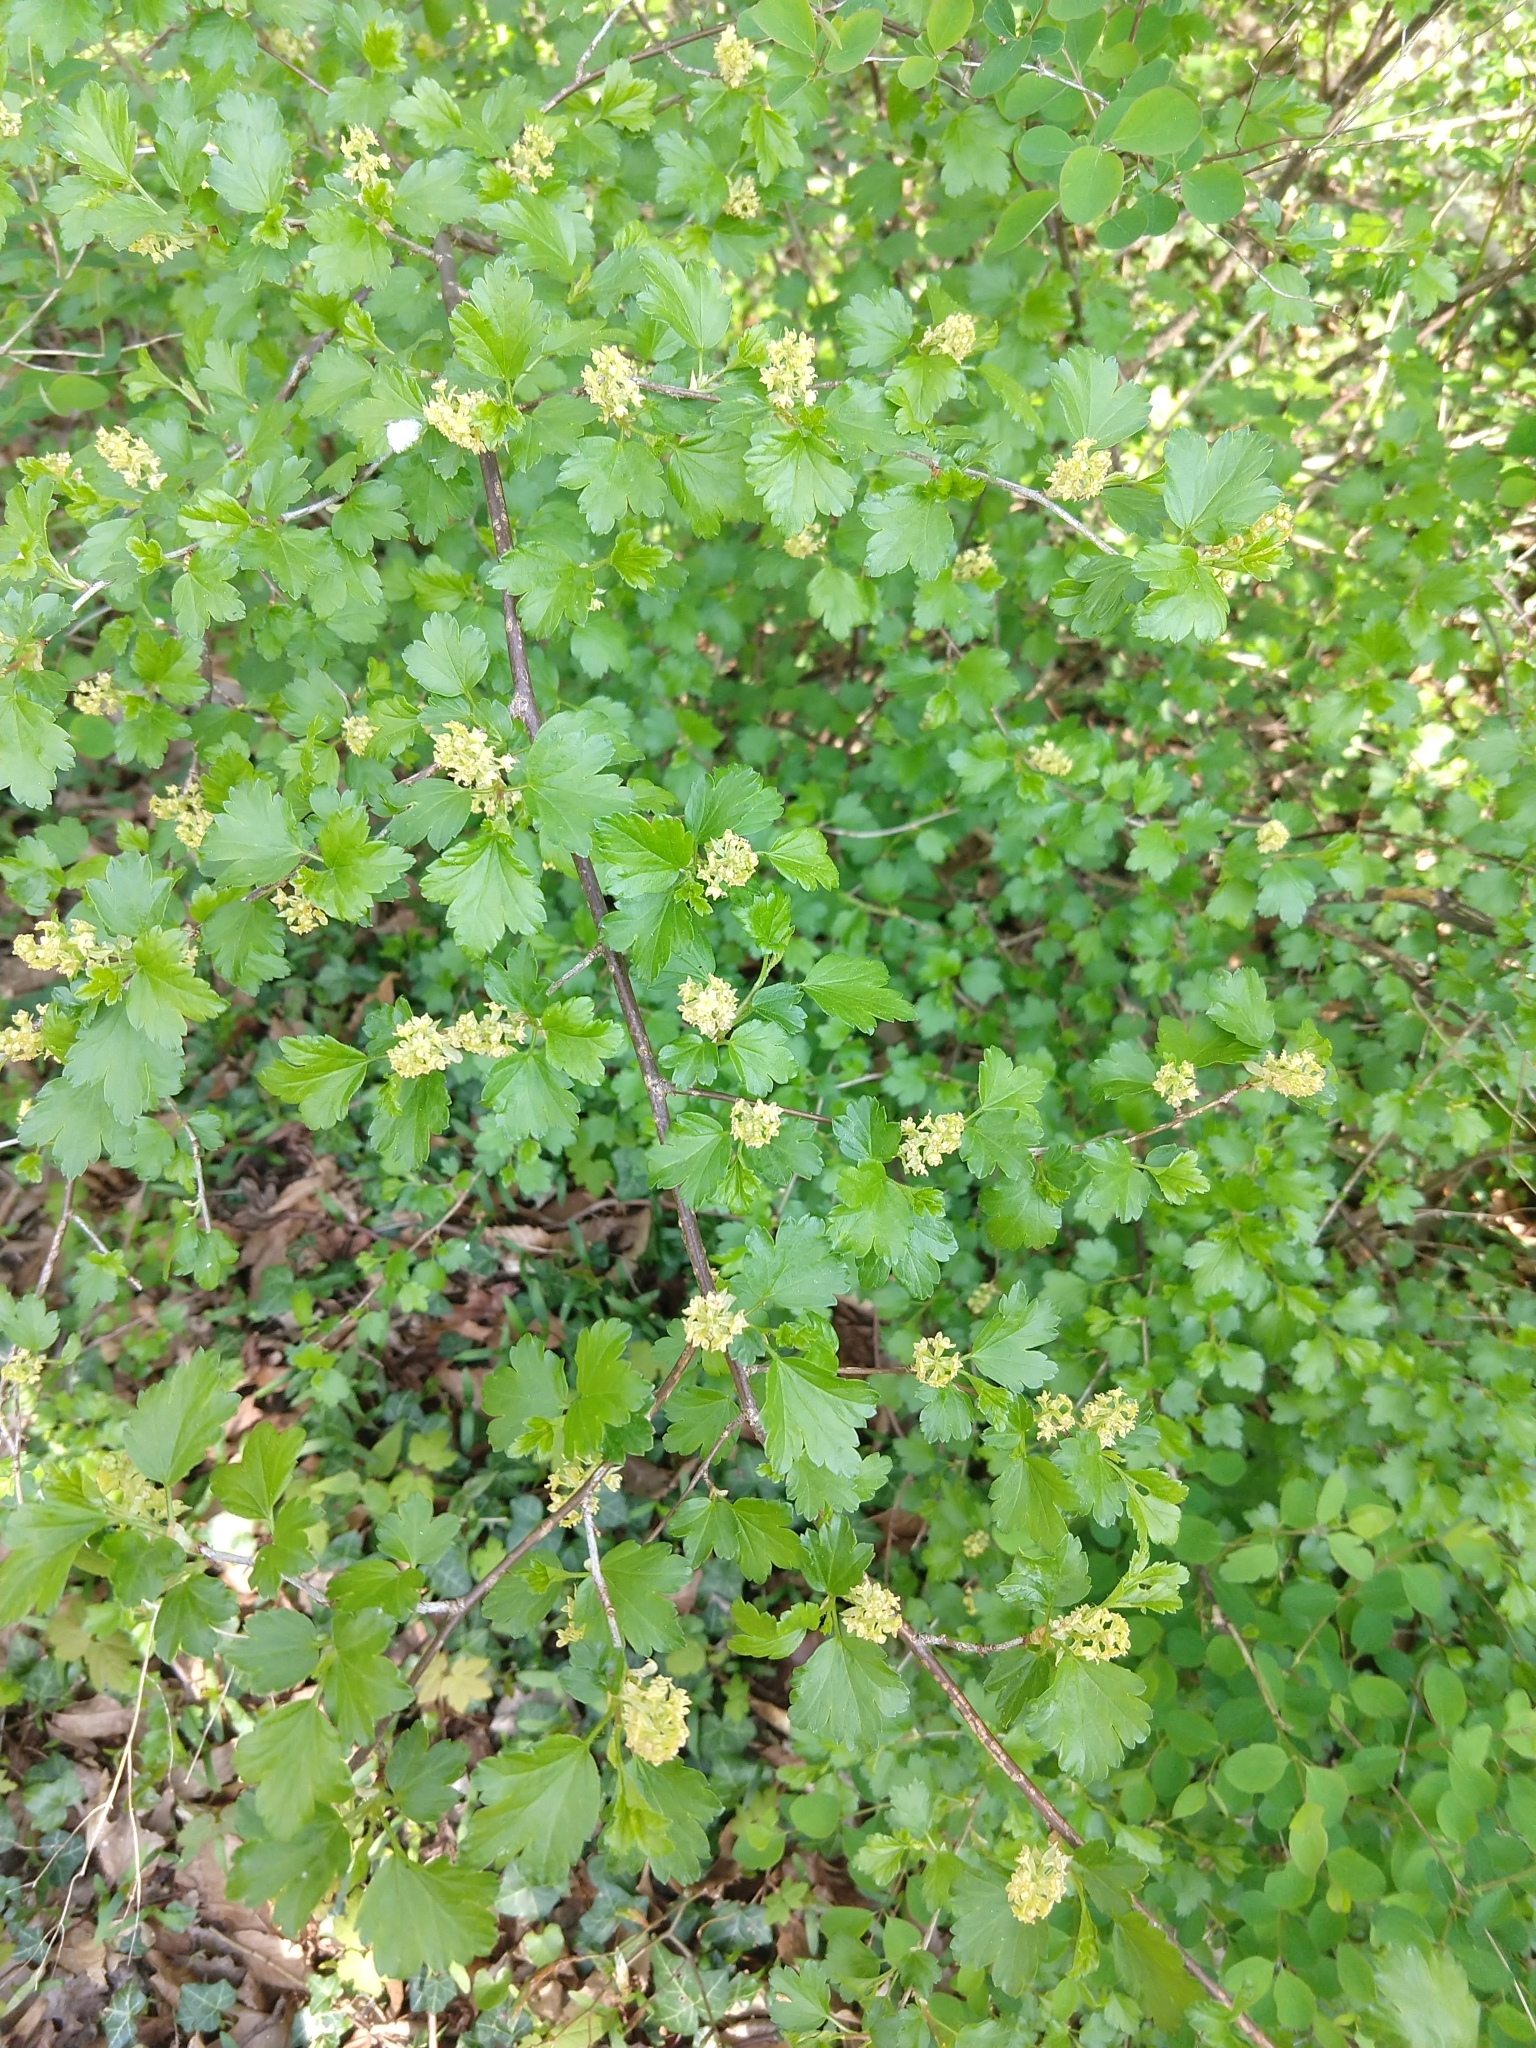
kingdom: Plantae
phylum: Tracheophyta
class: Magnoliopsida
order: Saxifragales
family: Grossulariaceae
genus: Ribes
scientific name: Ribes alpinum
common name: Alpine currant
